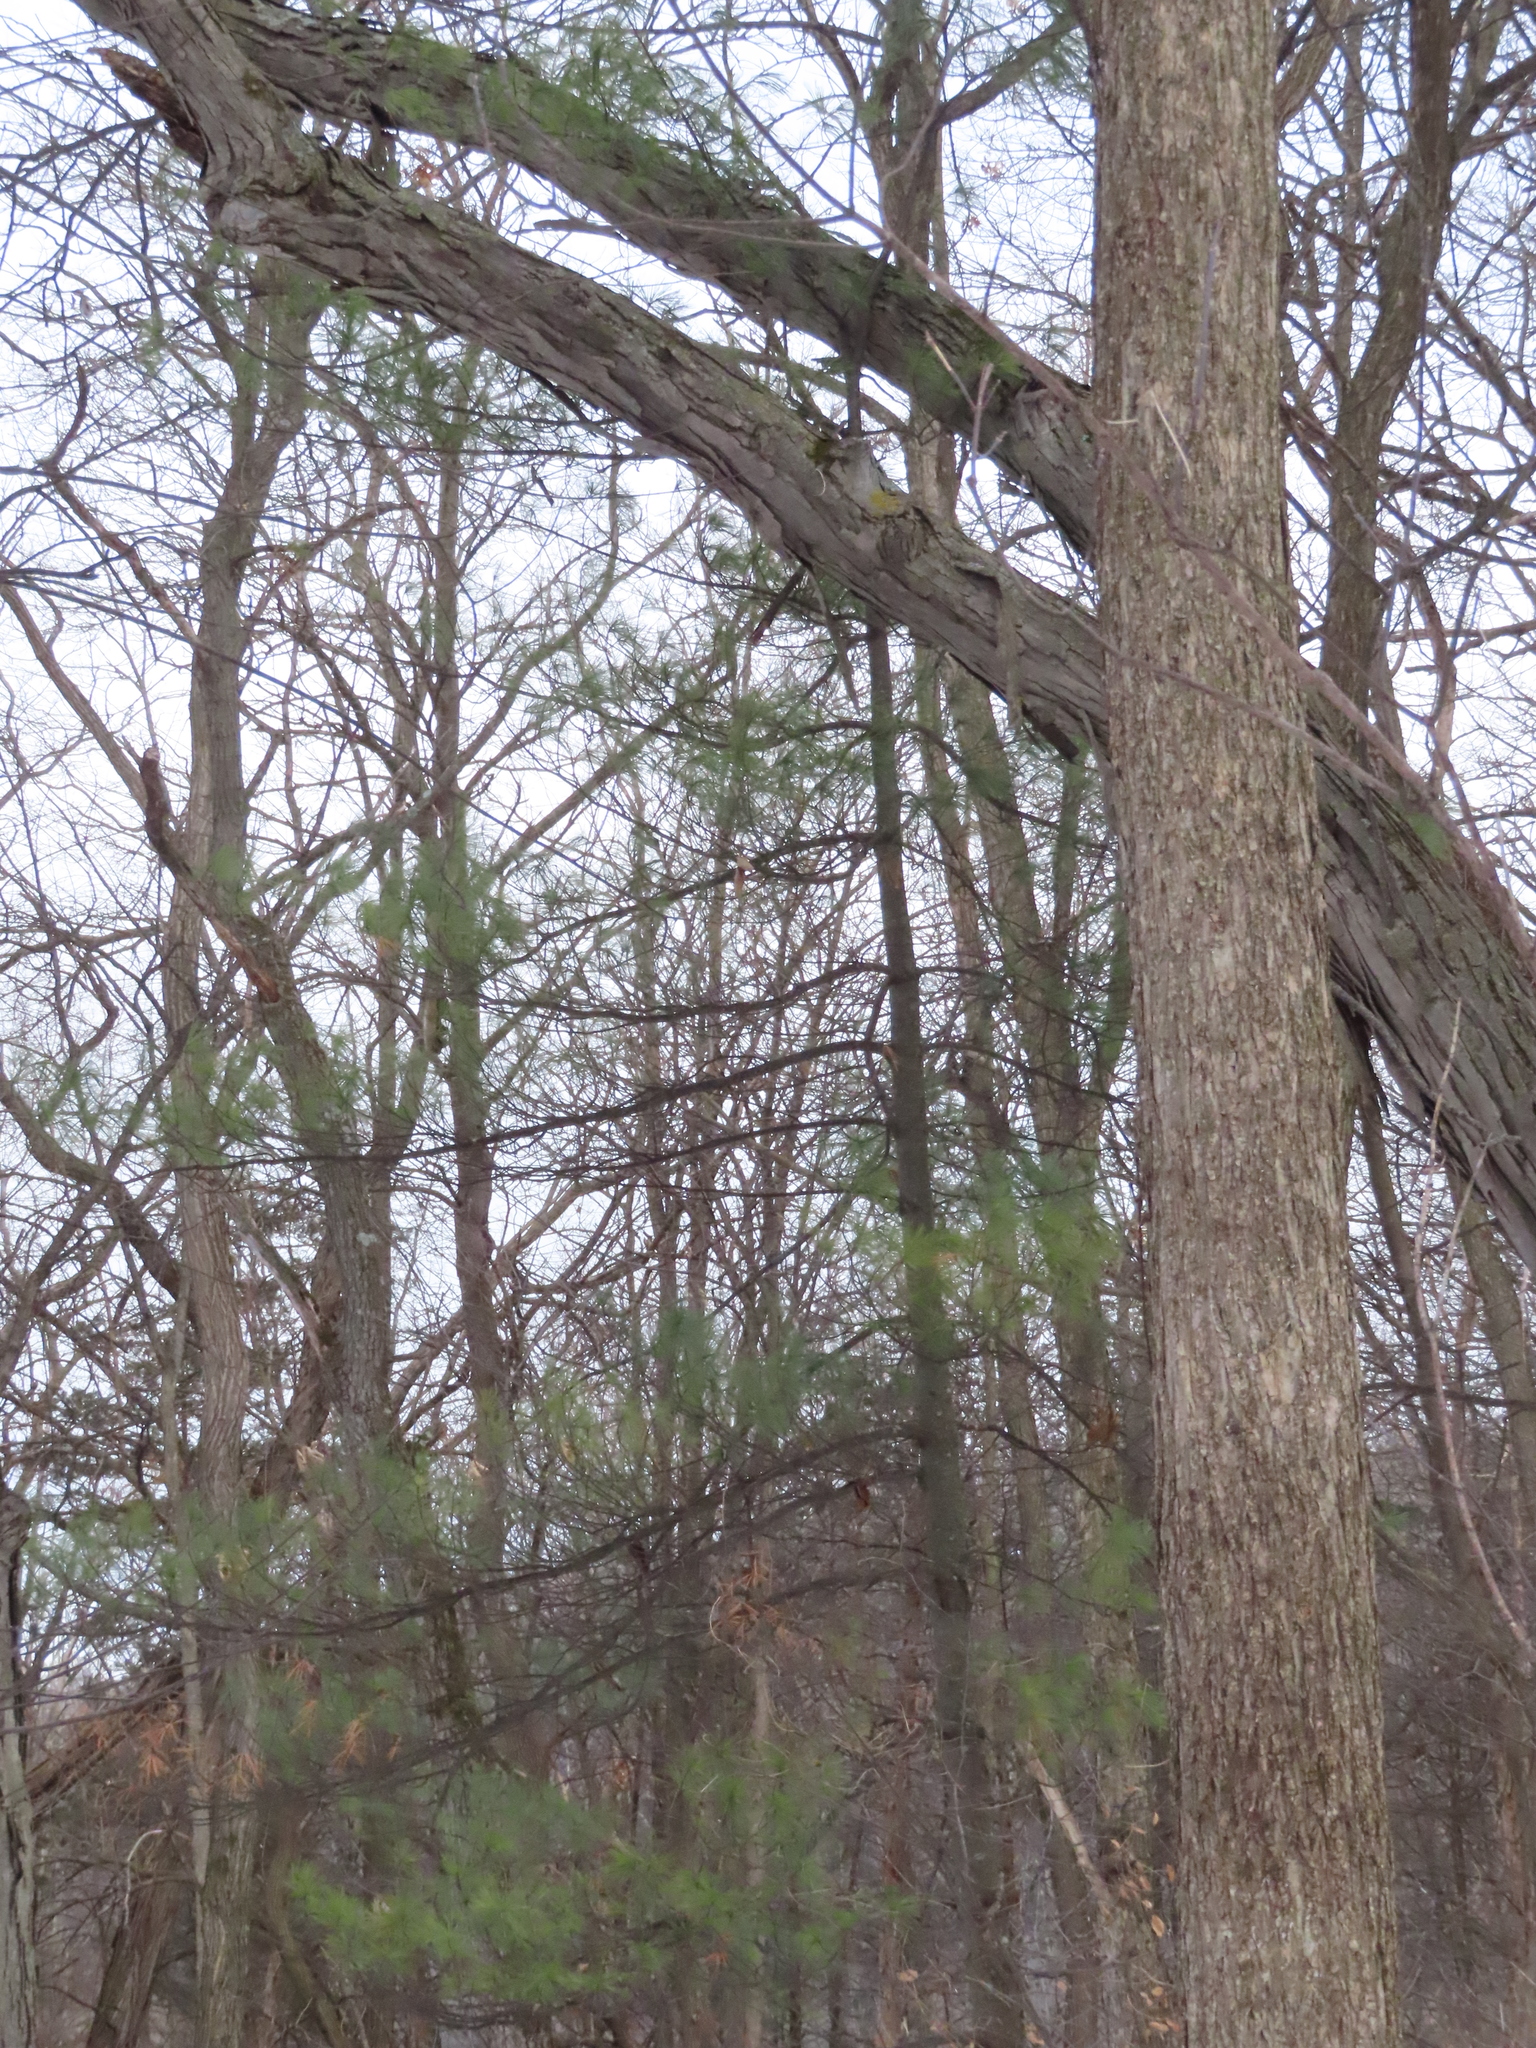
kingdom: Plantae
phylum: Tracheophyta
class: Pinopsida
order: Pinales
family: Pinaceae
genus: Pinus
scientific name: Pinus strobus
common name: Weymouth pine
